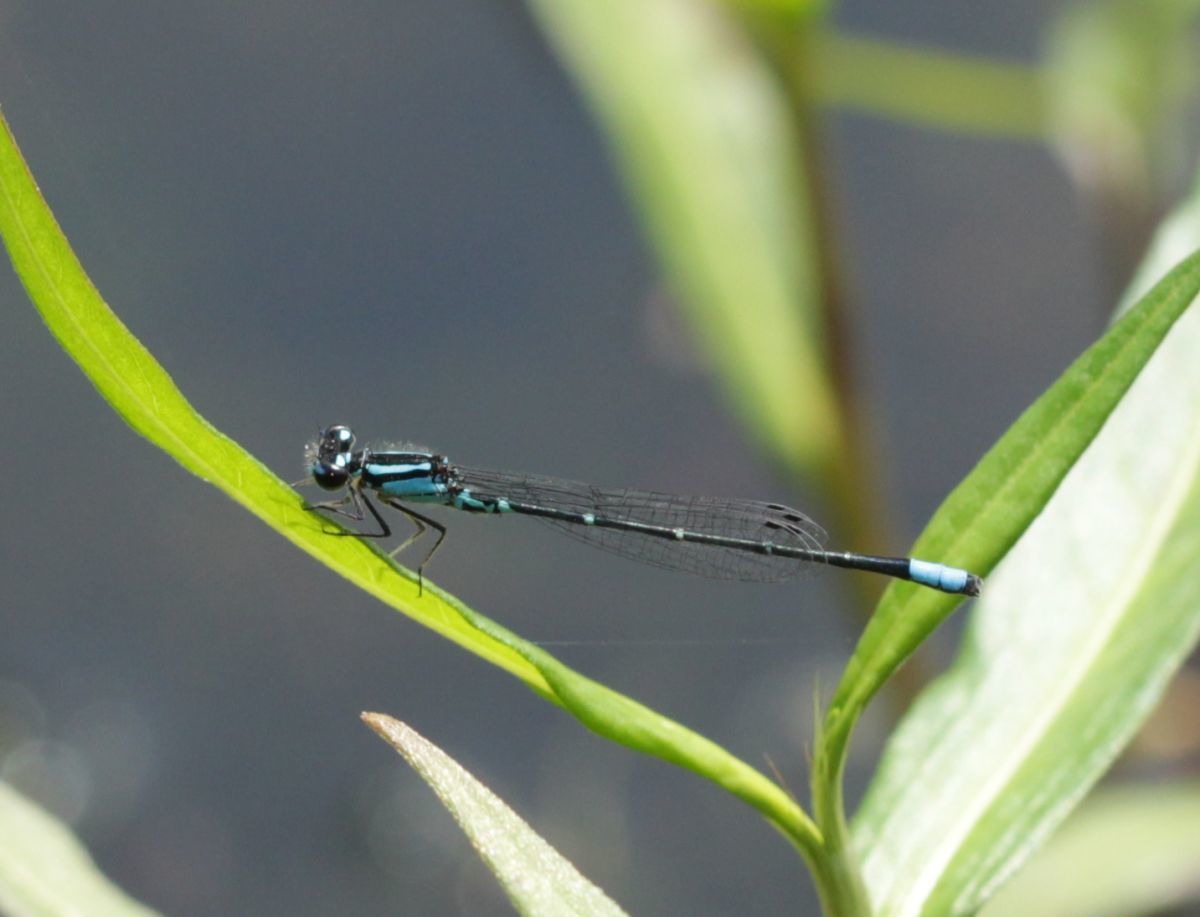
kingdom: Animalia
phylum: Arthropoda
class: Insecta
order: Odonata
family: Coenagrionidae
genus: Enallagma
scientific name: Enallagma geminatum
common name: Skimming bluet
